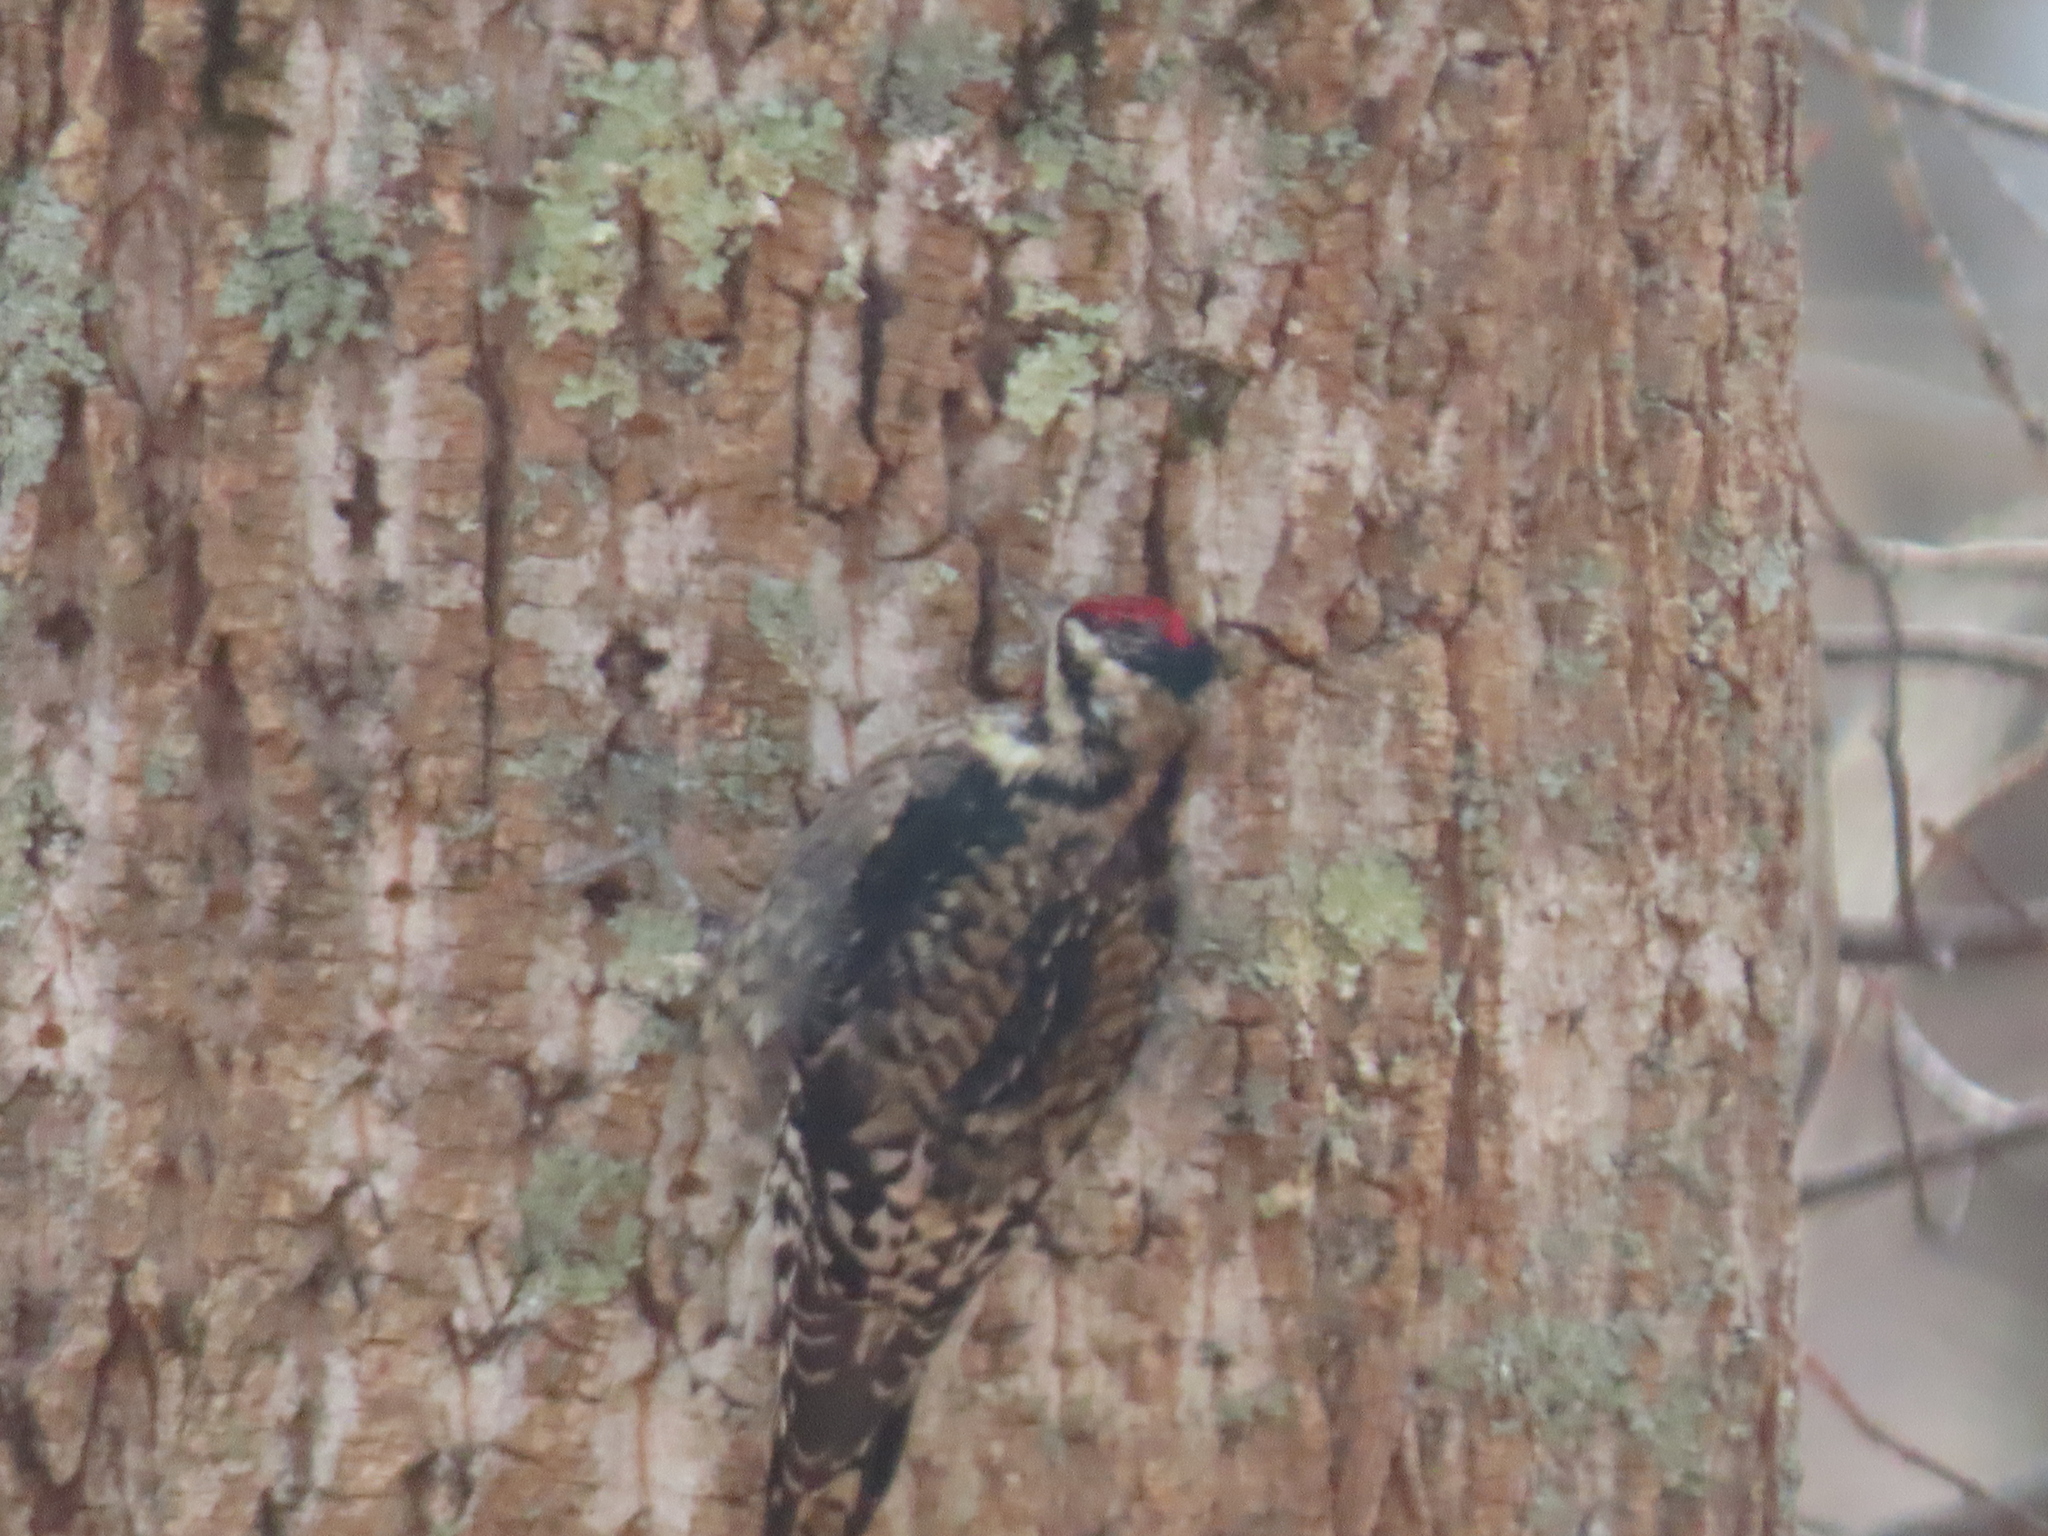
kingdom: Animalia
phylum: Chordata
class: Aves
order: Piciformes
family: Picidae
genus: Sphyrapicus
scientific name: Sphyrapicus varius
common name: Yellow-bellied sapsucker
